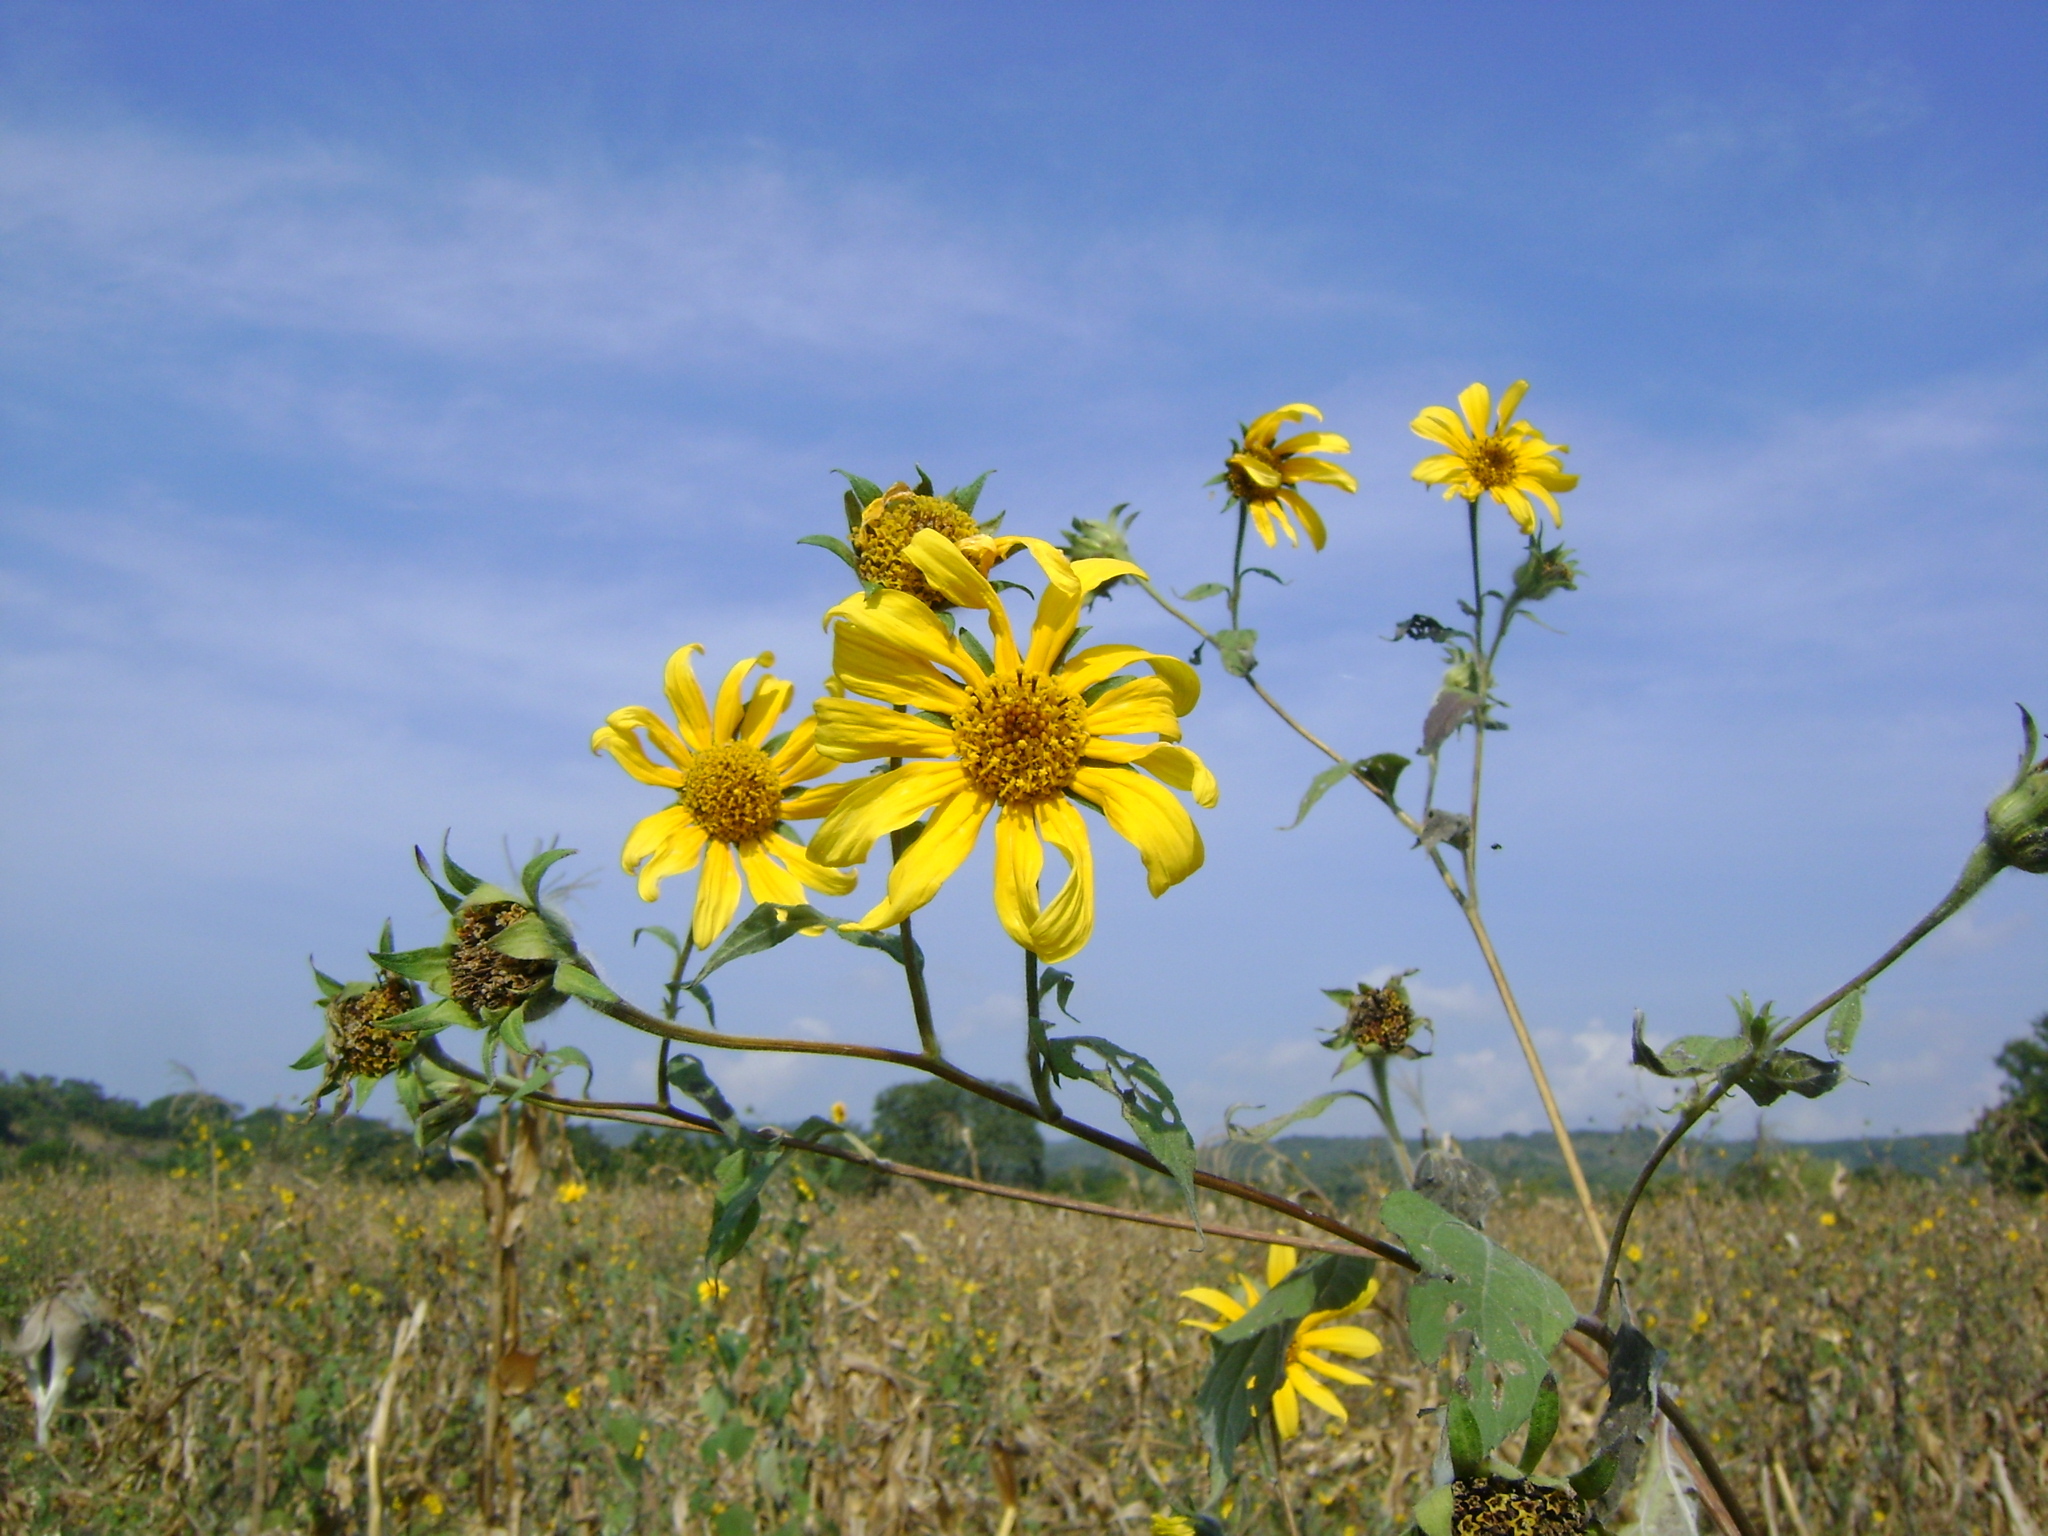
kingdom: Plantae
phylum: Tracheophyta
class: Magnoliopsida
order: Asterales
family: Asteraceae
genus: Tithonia
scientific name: Tithonia tubaeformis
